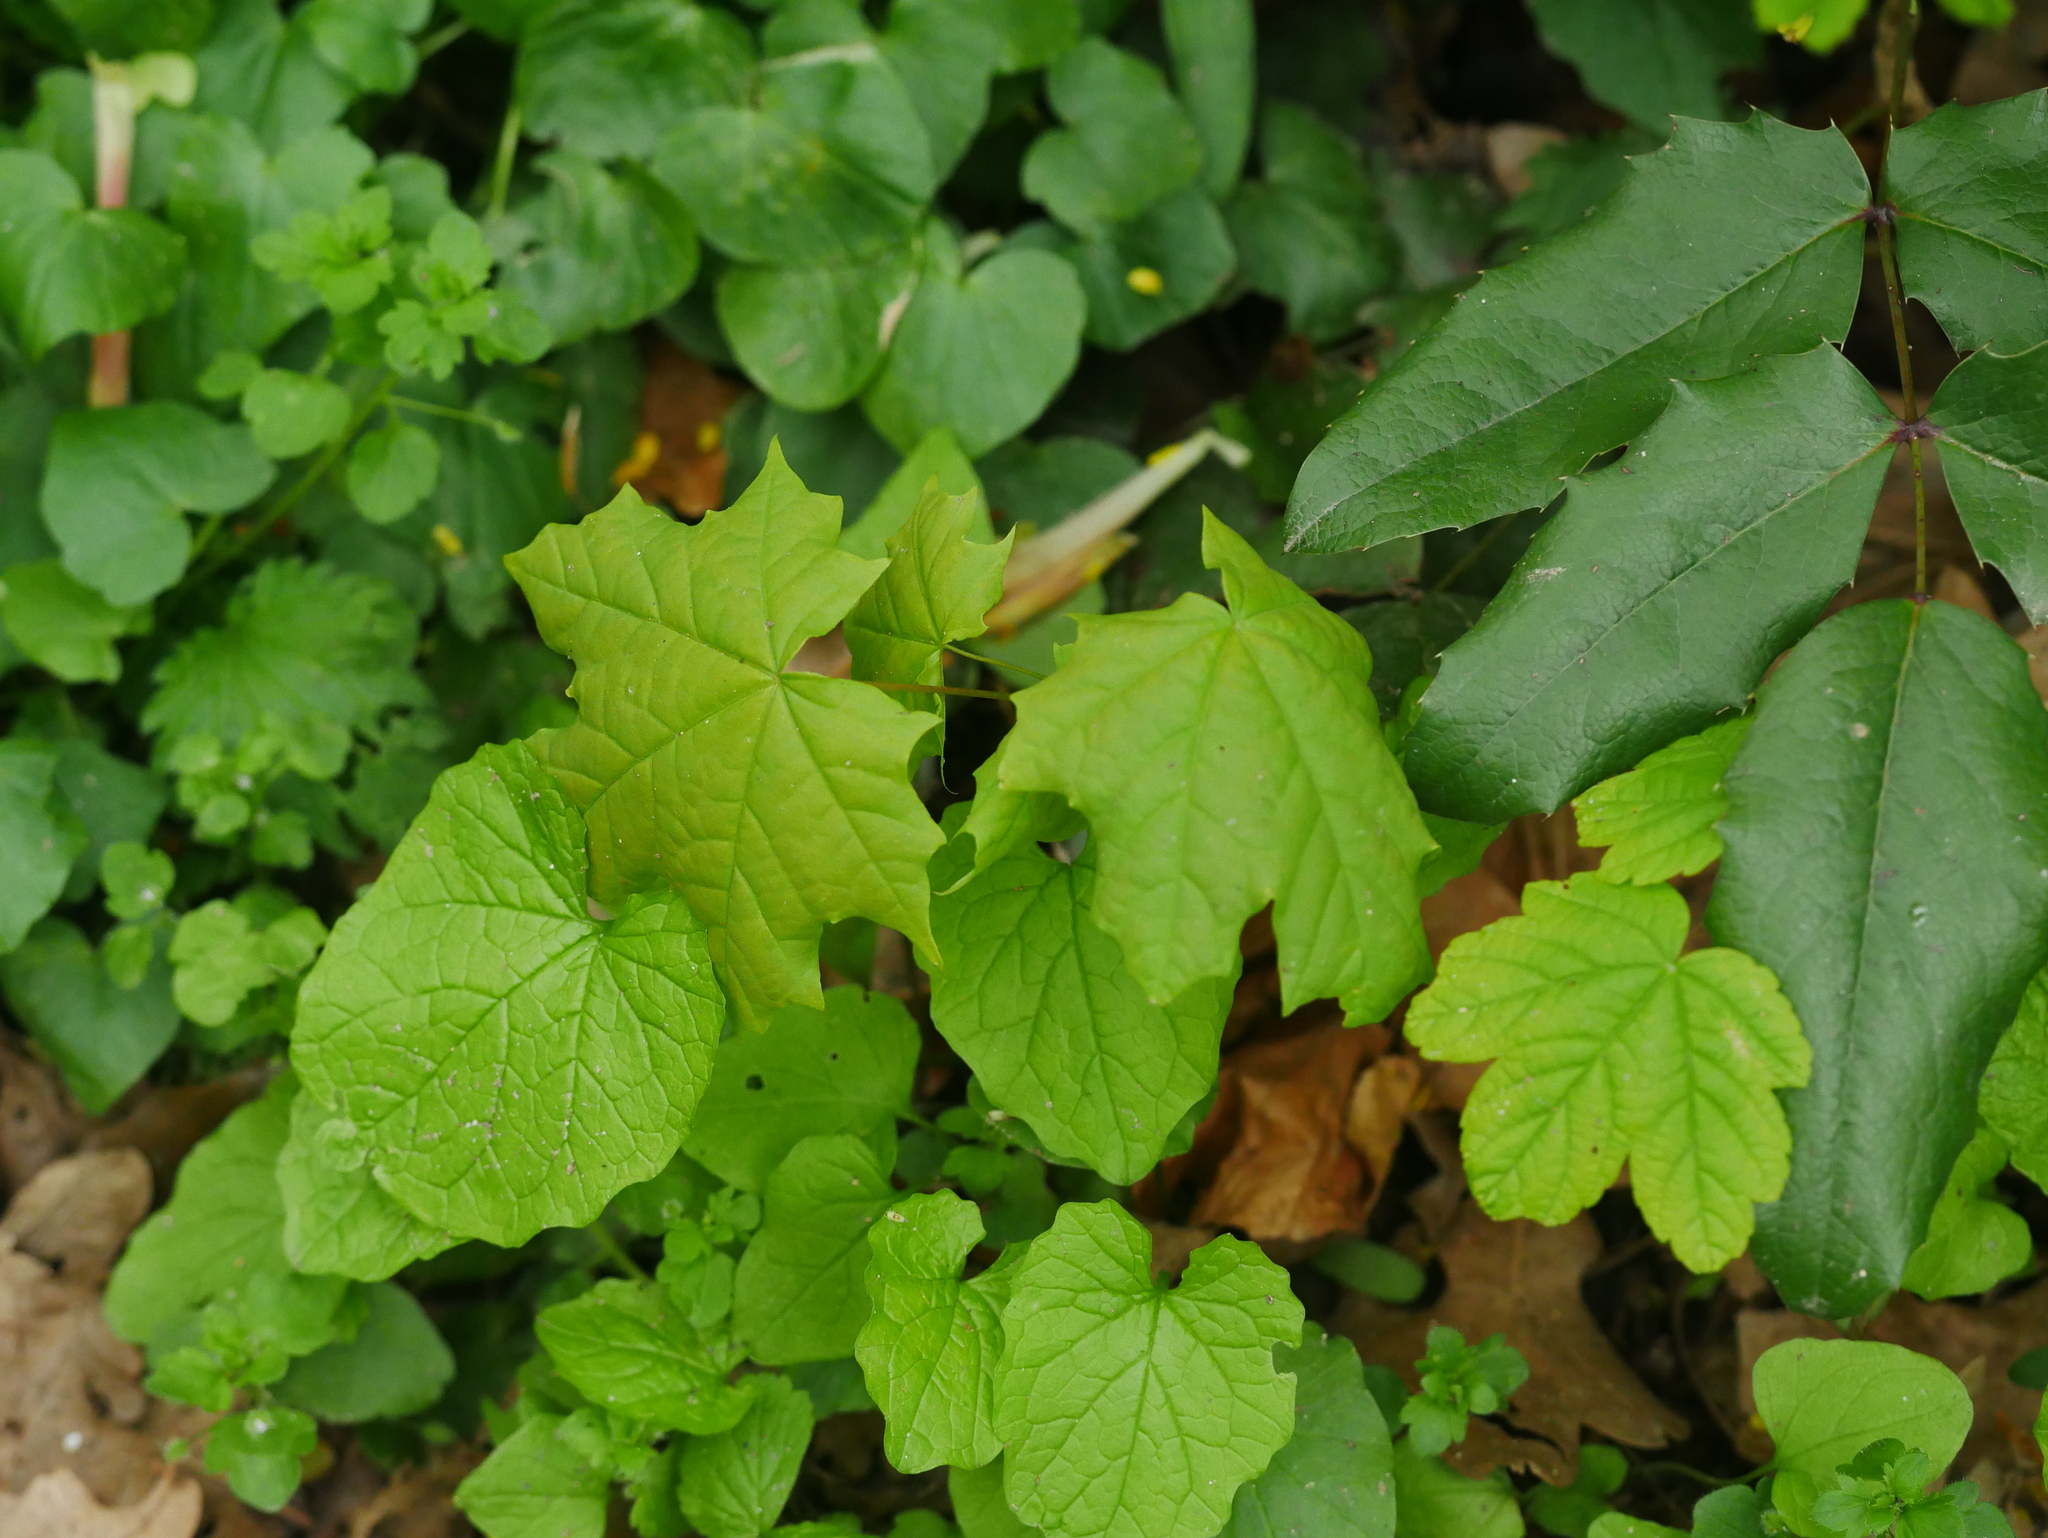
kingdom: Plantae
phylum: Tracheophyta
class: Magnoliopsida
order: Sapindales
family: Sapindaceae
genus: Acer
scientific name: Acer platanoides
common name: Norway maple
